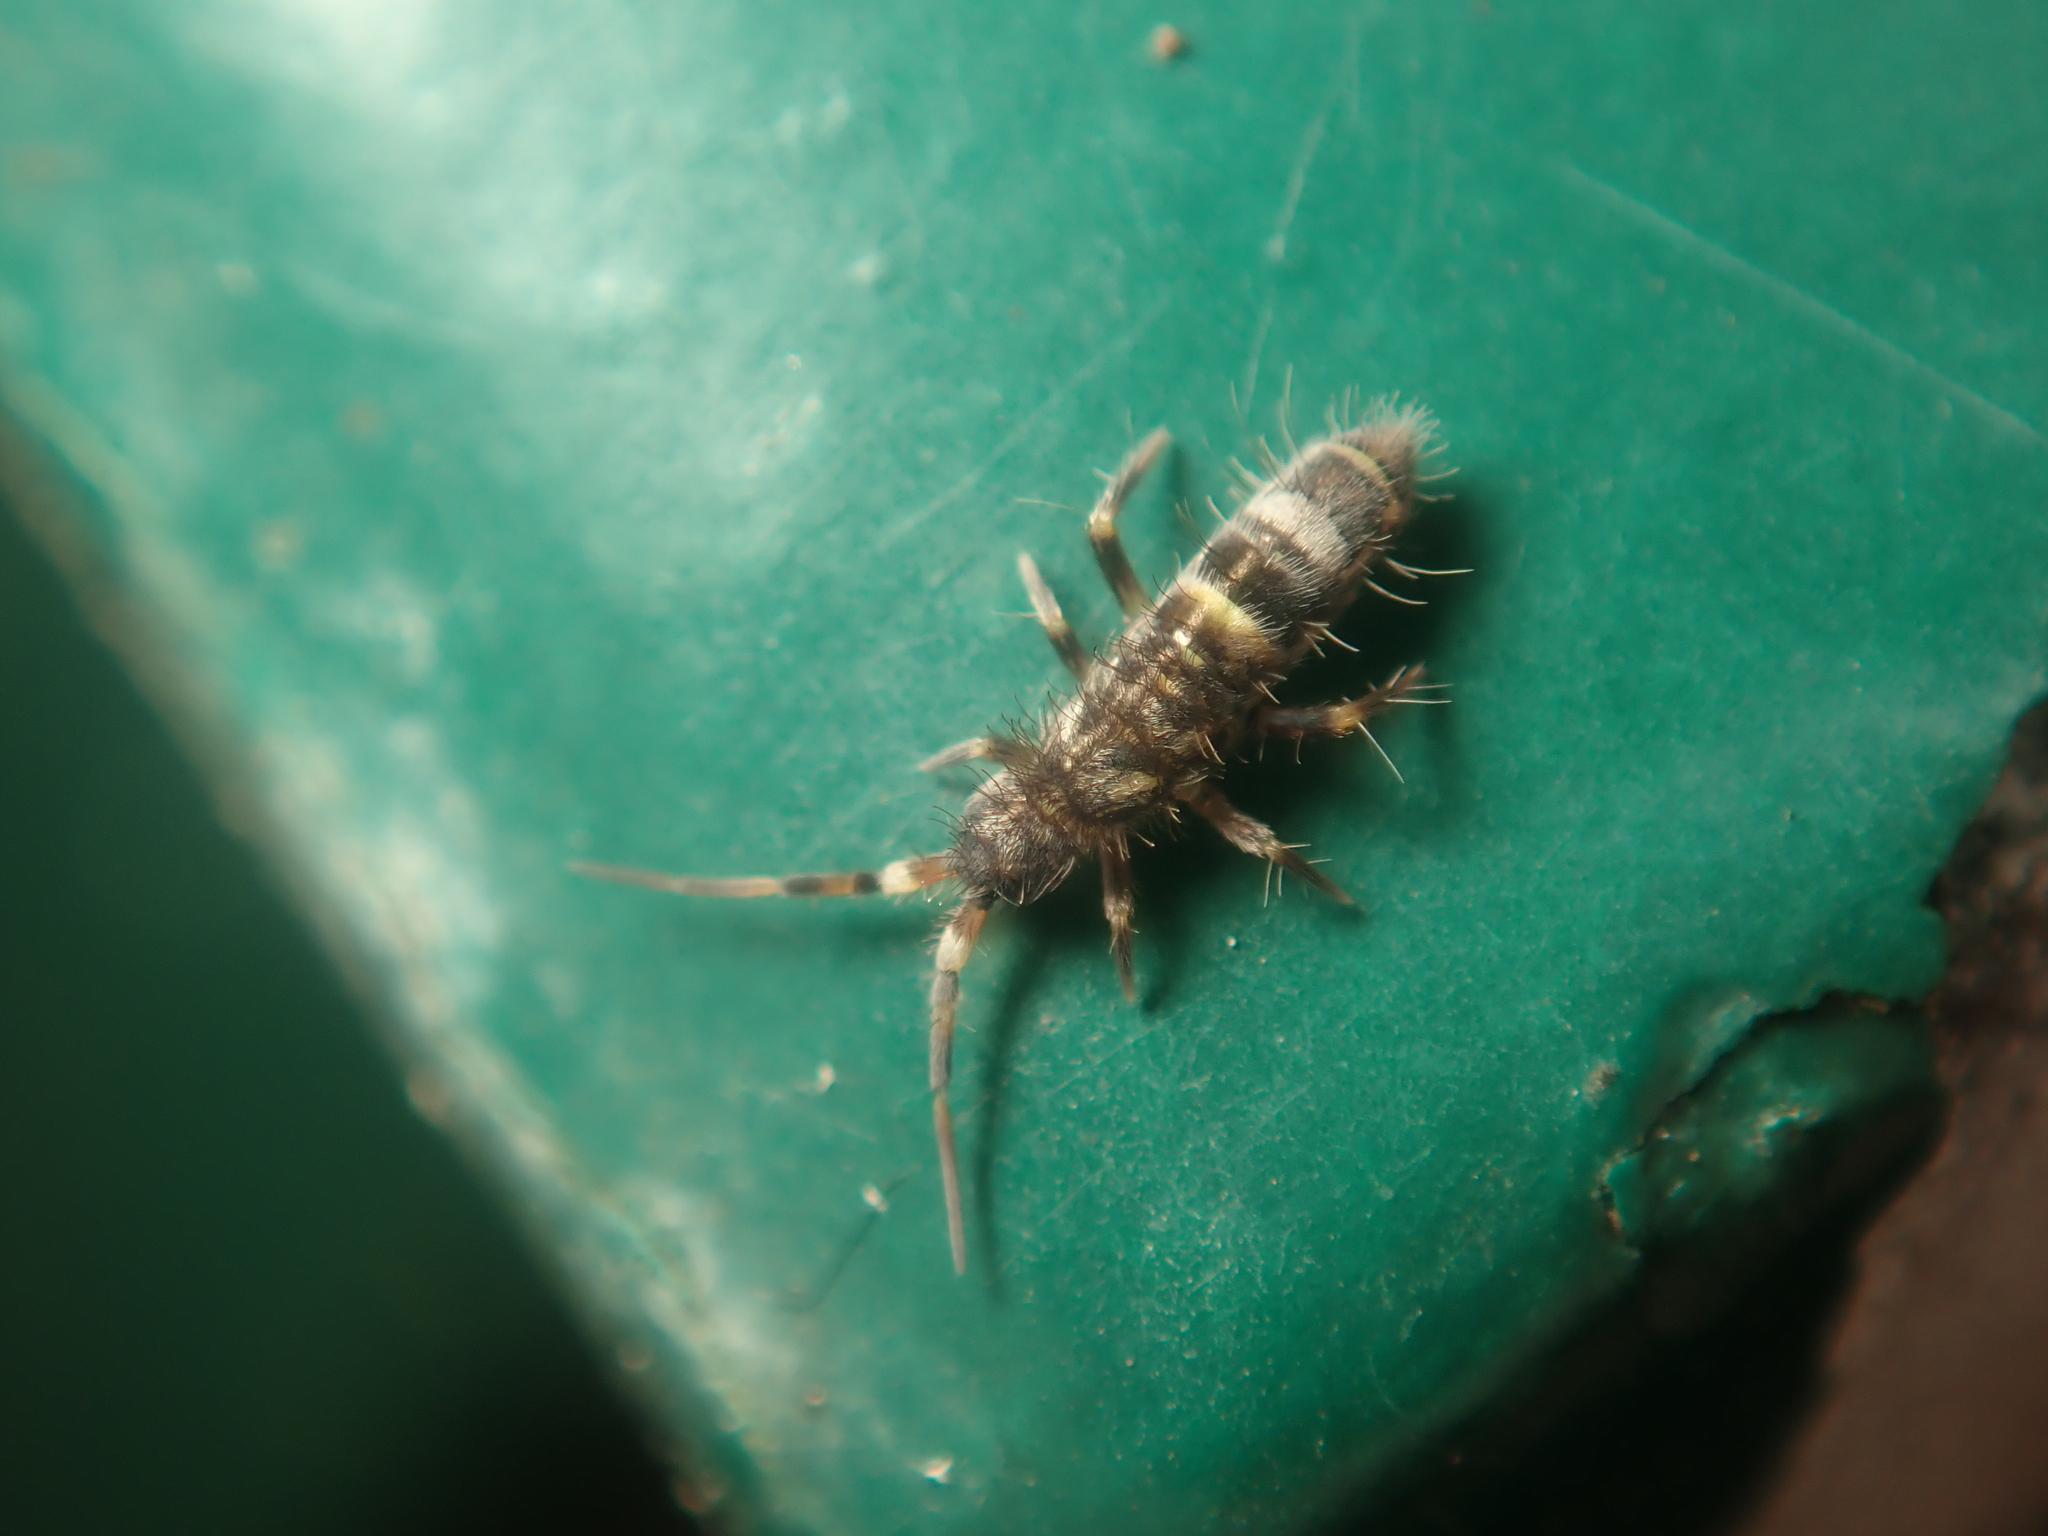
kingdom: Animalia
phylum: Arthropoda
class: Collembola
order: Entomobryomorpha
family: Orchesellidae
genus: Orchesella
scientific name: Orchesella cincta
